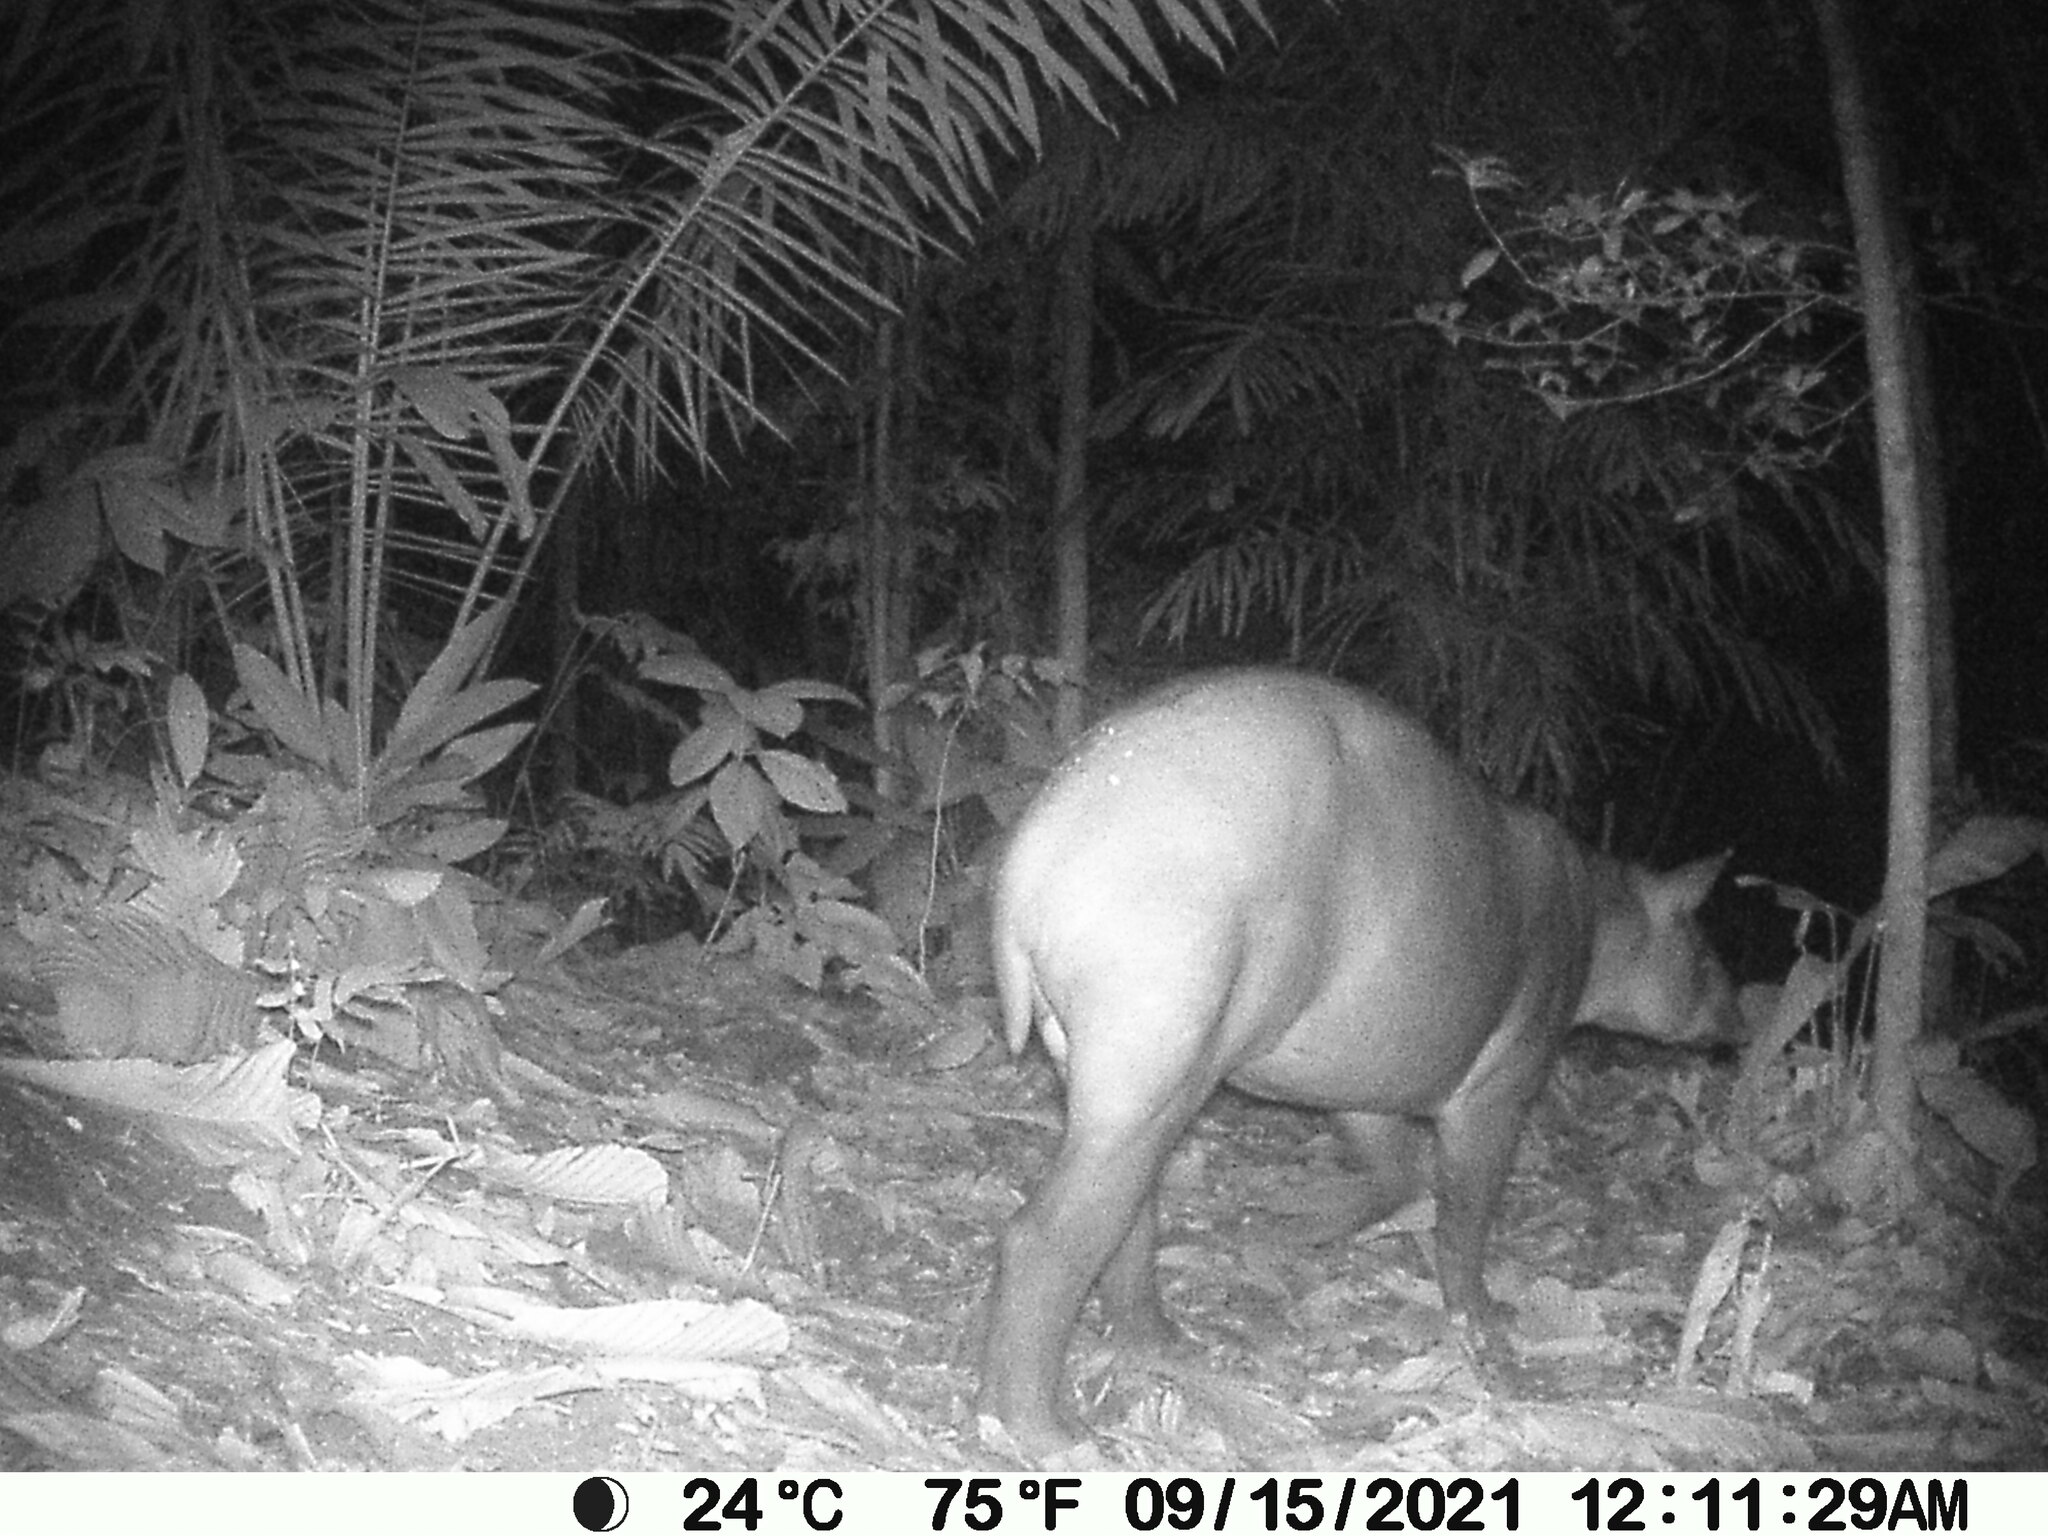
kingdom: Animalia
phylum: Chordata
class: Mammalia
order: Perissodactyla
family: Tapiridae
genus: Tapirella
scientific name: Tapirella bairdii
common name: Baird's tapir
